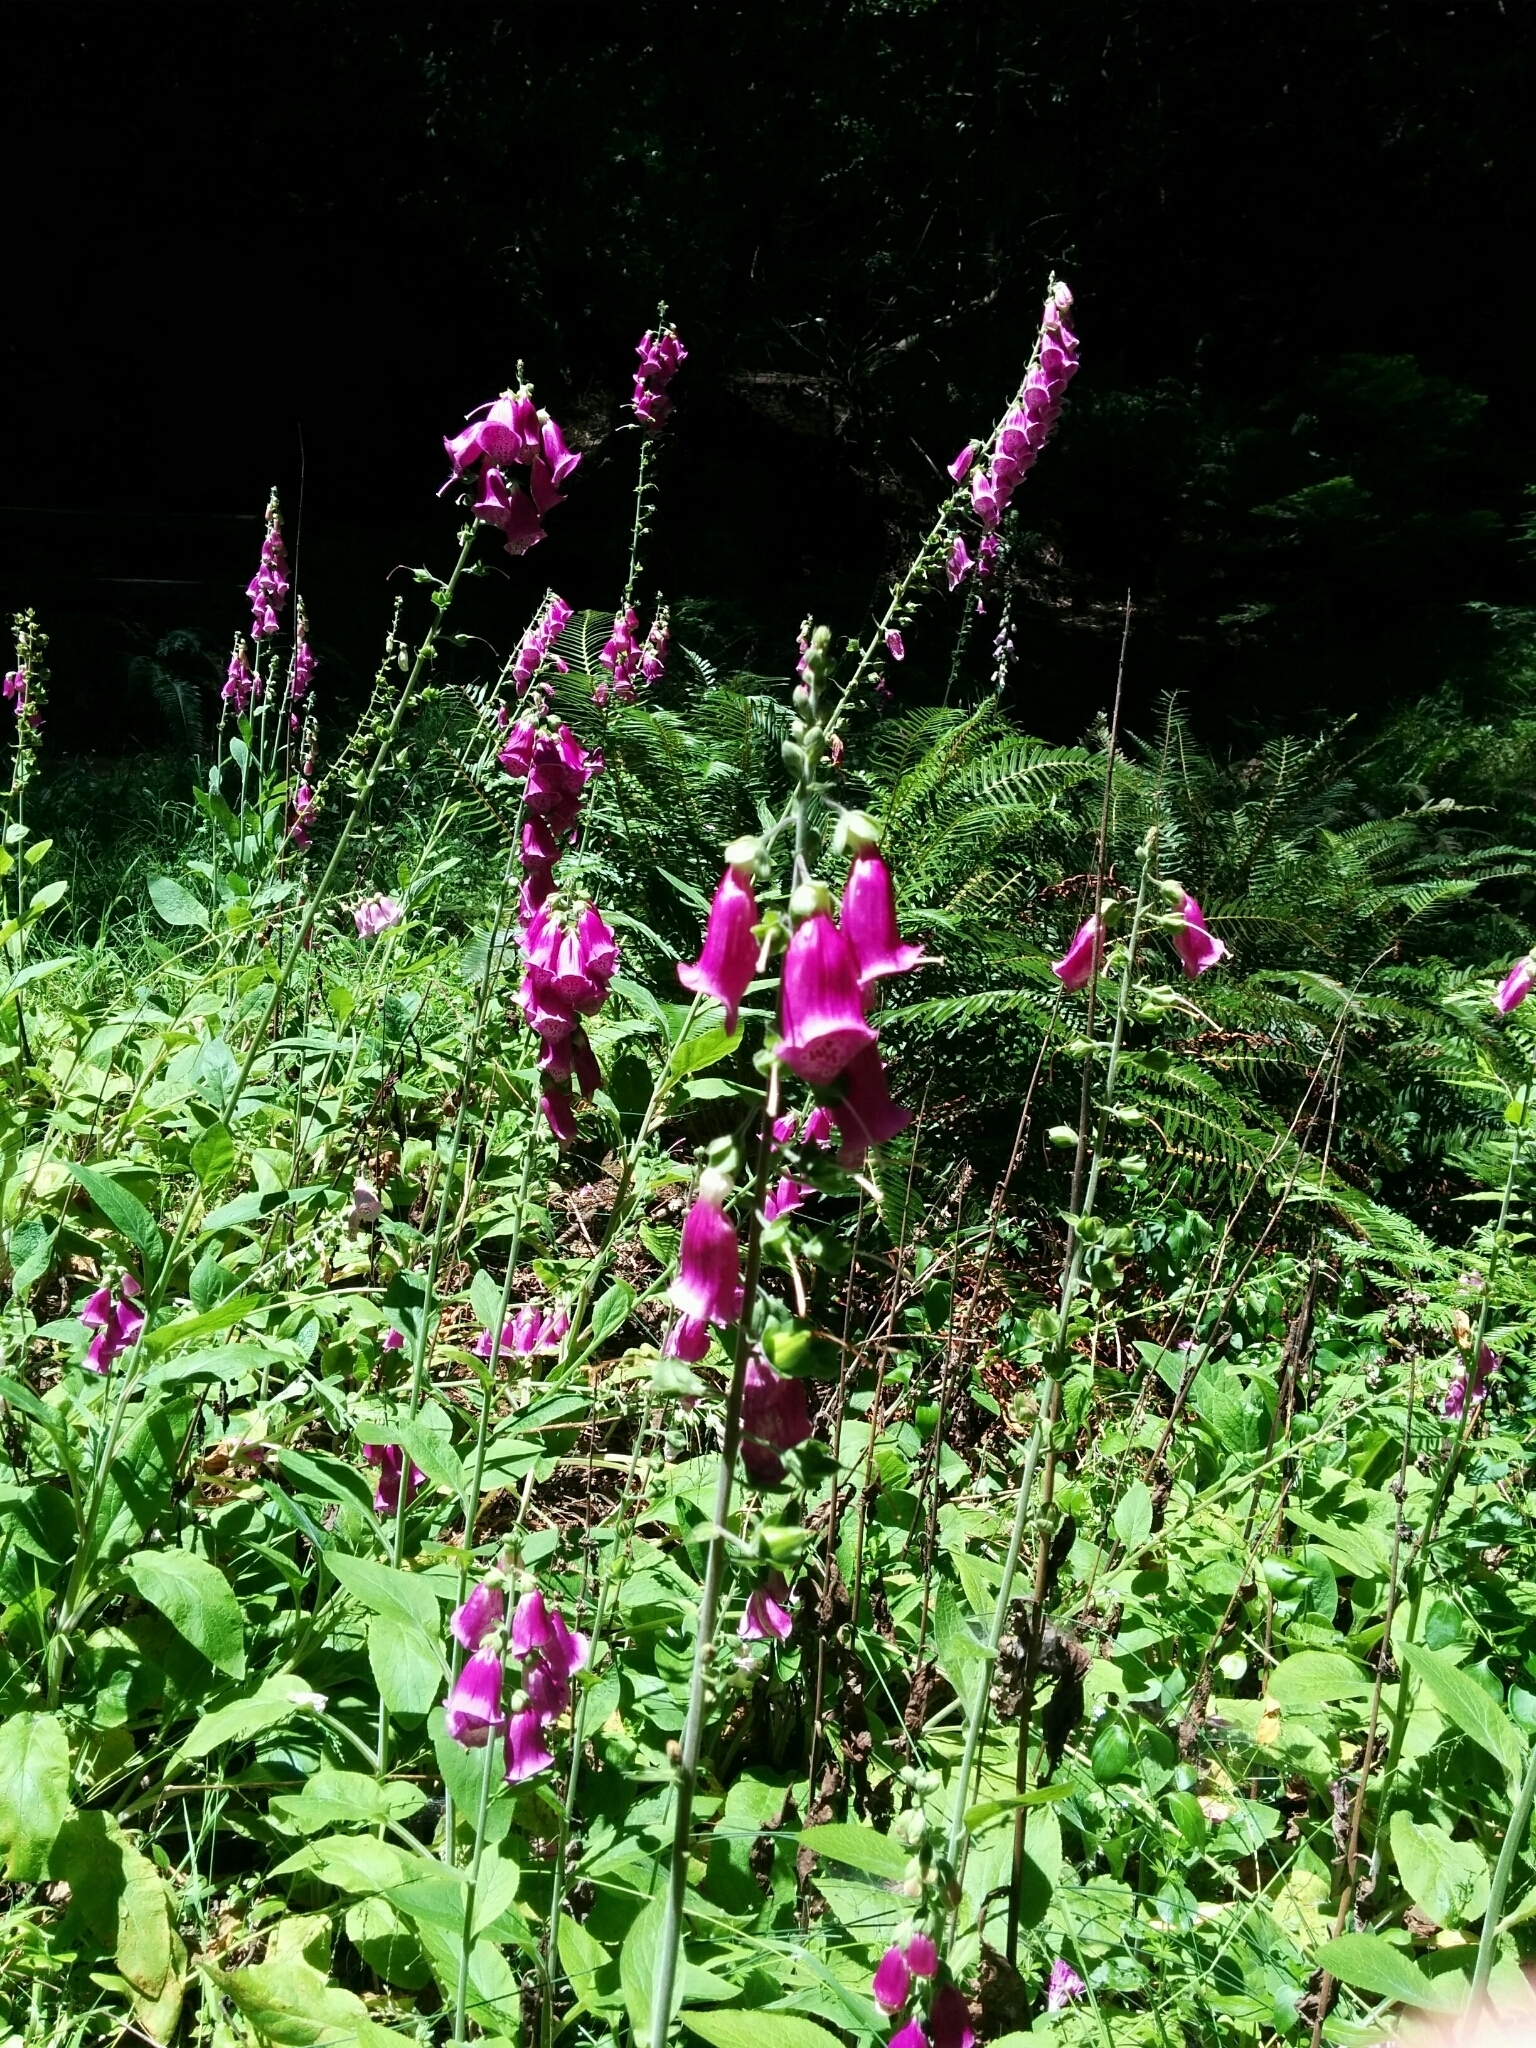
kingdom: Plantae
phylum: Tracheophyta
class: Magnoliopsida
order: Lamiales
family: Plantaginaceae
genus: Digitalis
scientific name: Digitalis purpurea
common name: Foxglove
